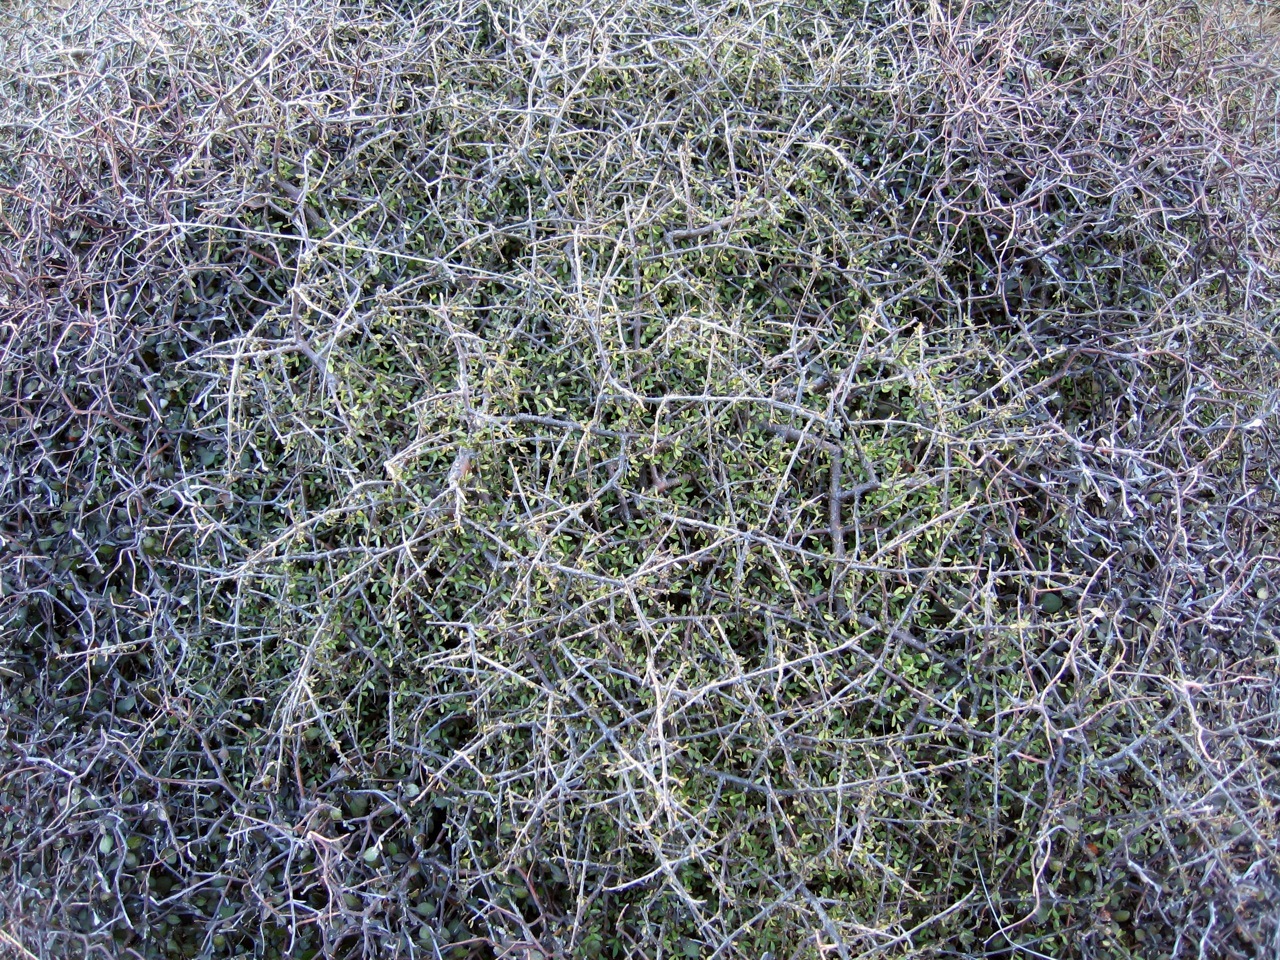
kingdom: Plantae
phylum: Tracheophyta
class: Magnoliopsida
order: Asterales
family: Argophyllaceae
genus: Corokia
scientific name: Corokia cotoneaster
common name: Wire nettingbush
